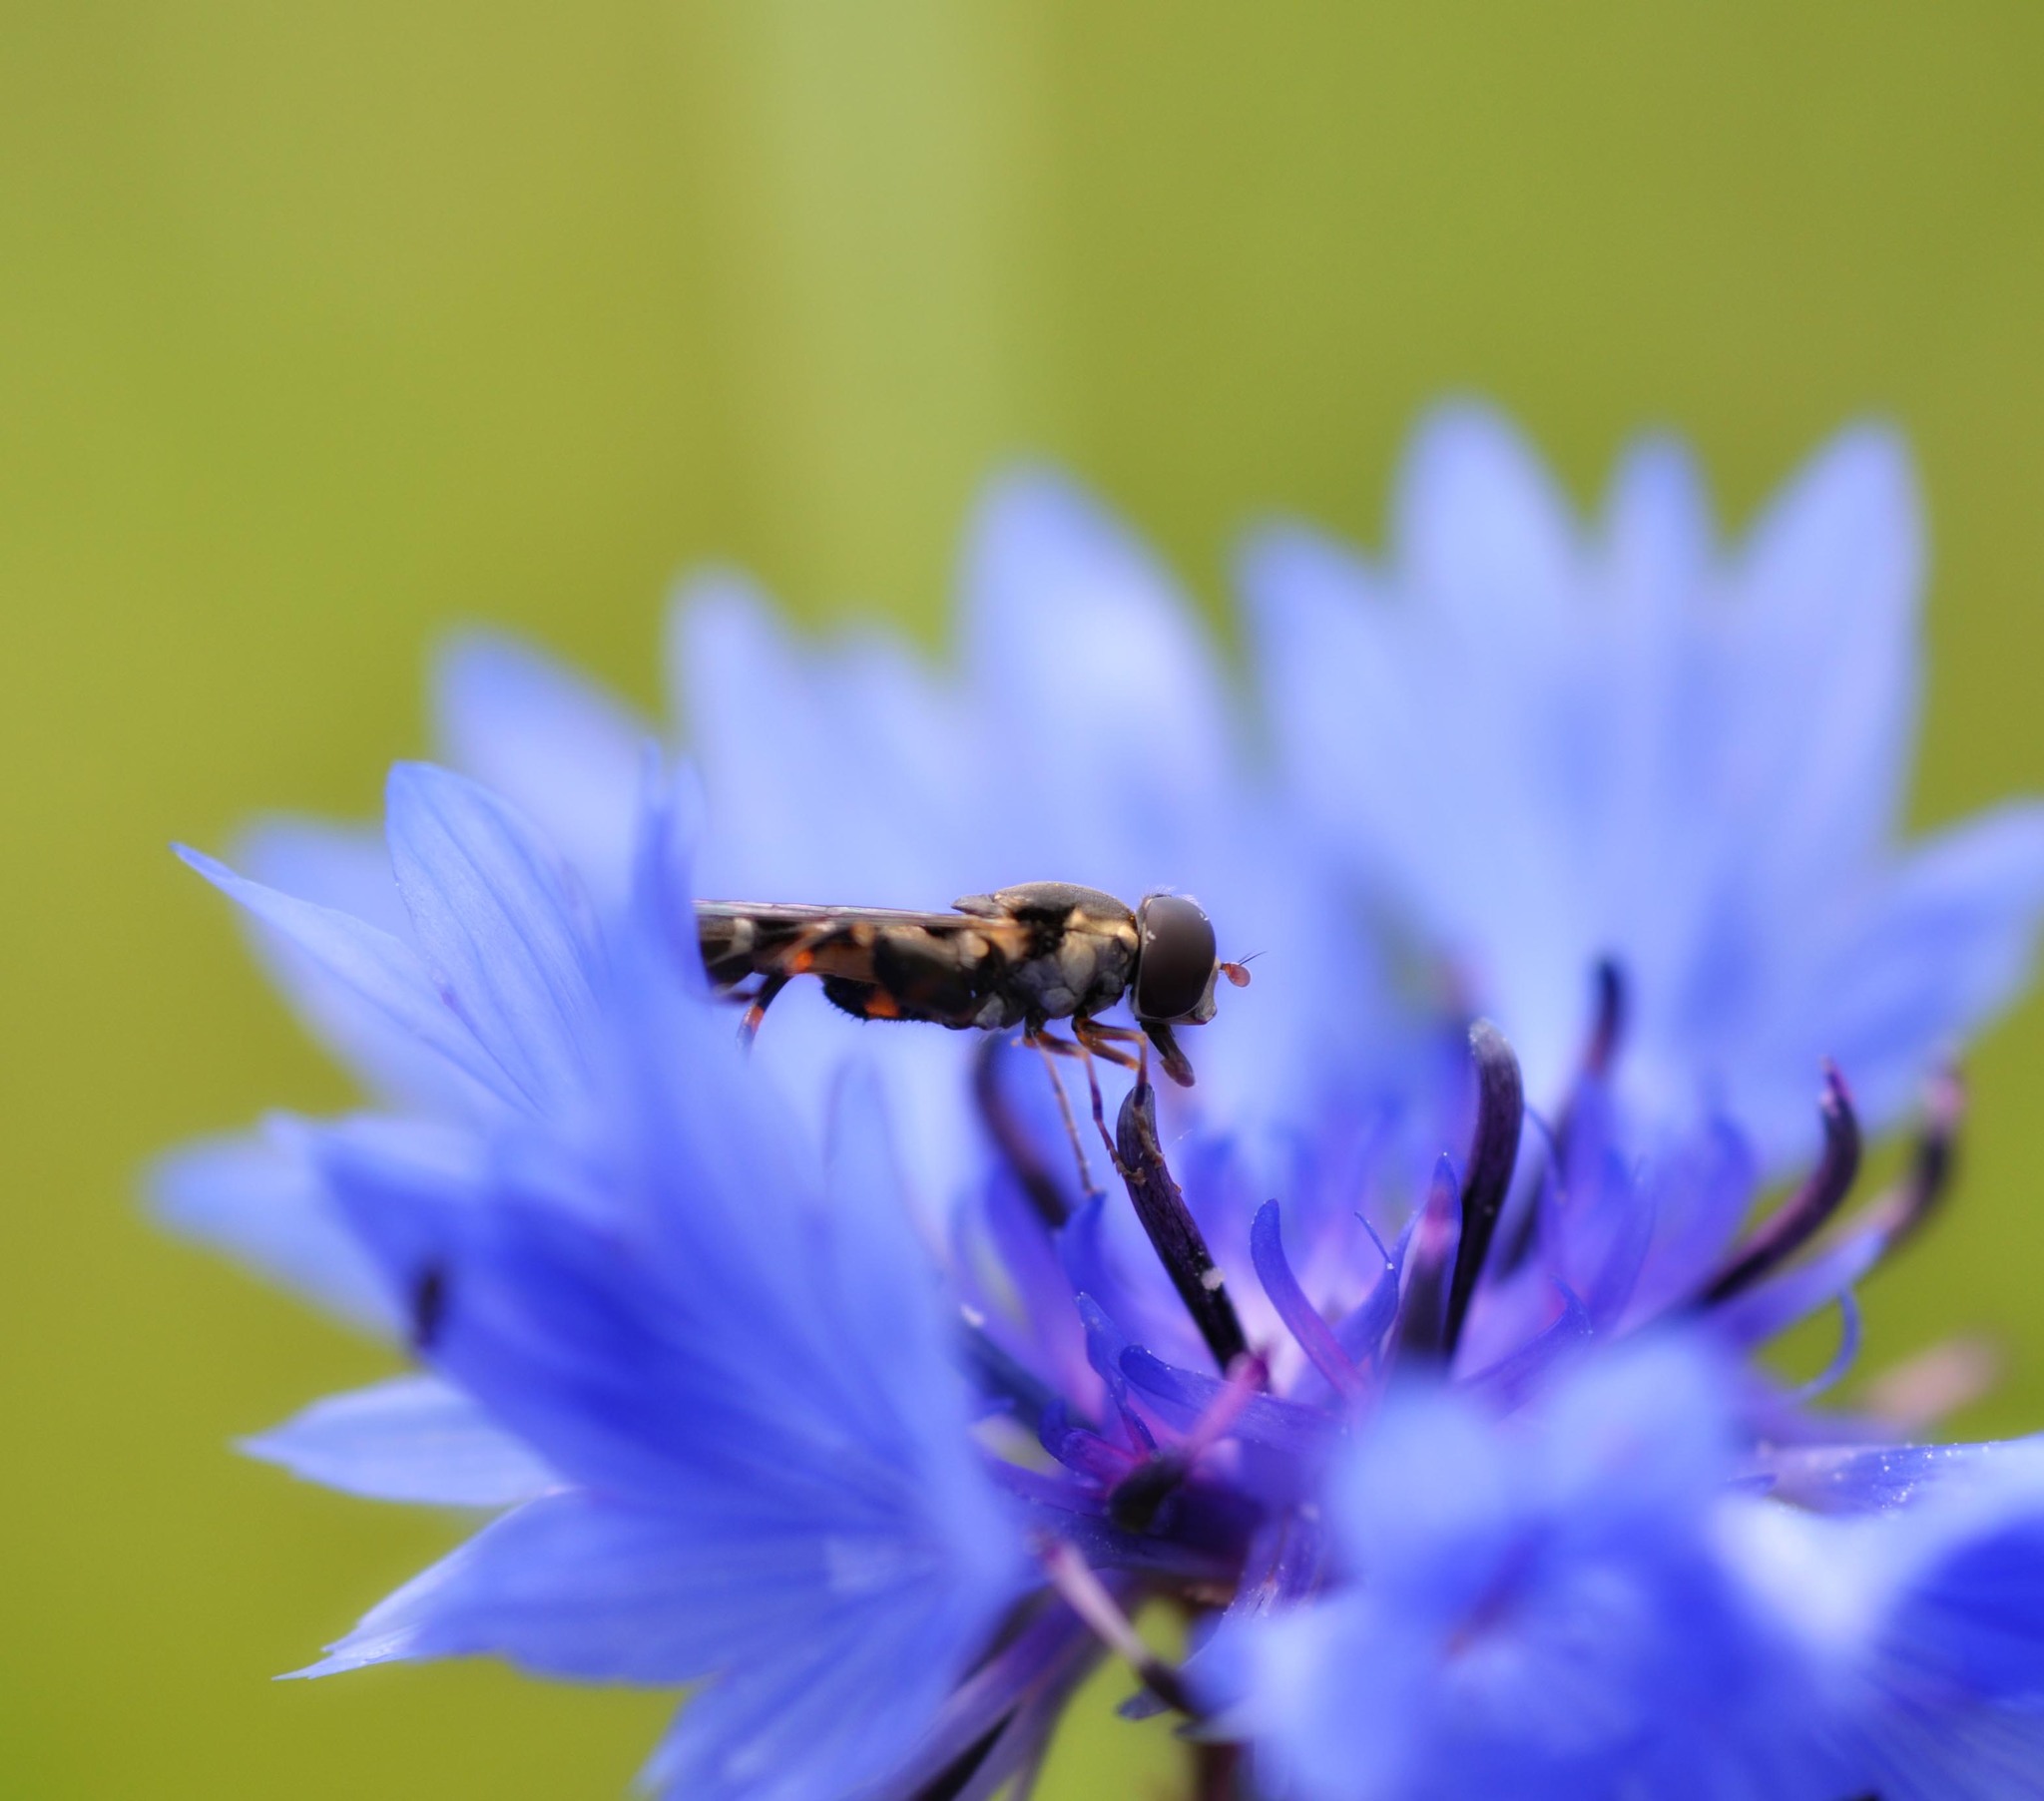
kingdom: Animalia
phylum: Arthropoda
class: Insecta
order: Diptera
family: Syrphidae
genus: Syritta
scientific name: Syritta pipiens
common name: Hover fly
